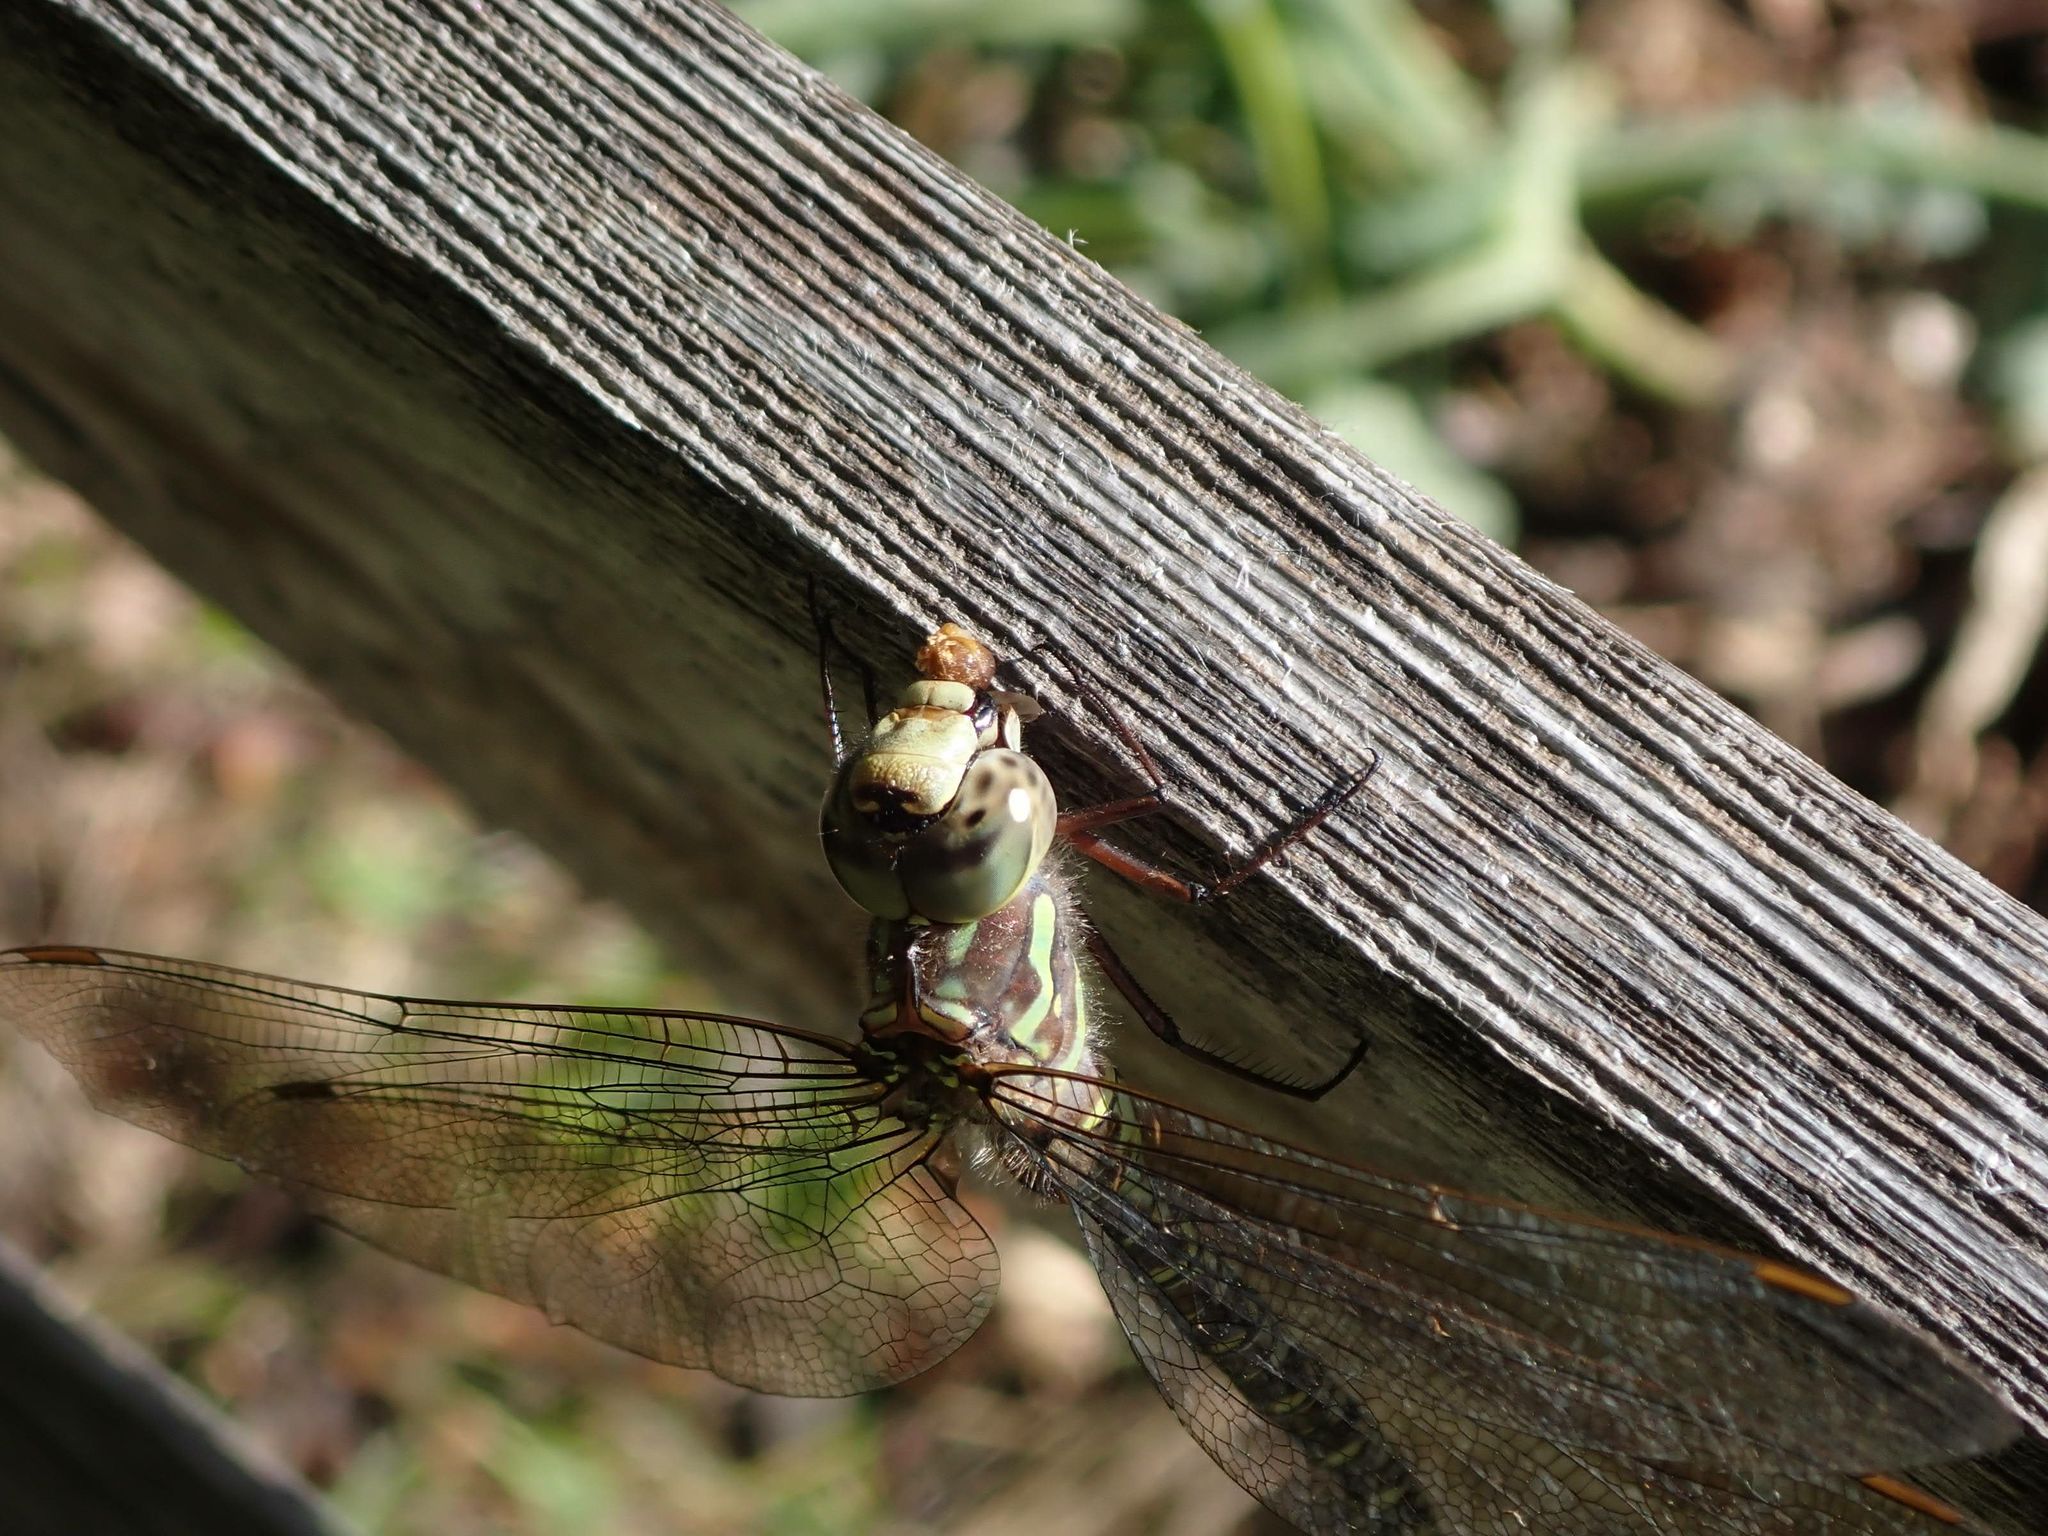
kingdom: Animalia
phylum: Arthropoda
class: Insecta
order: Odonata
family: Aeshnidae
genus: Aeshna
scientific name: Aeshna canadensis
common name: Canada darner
